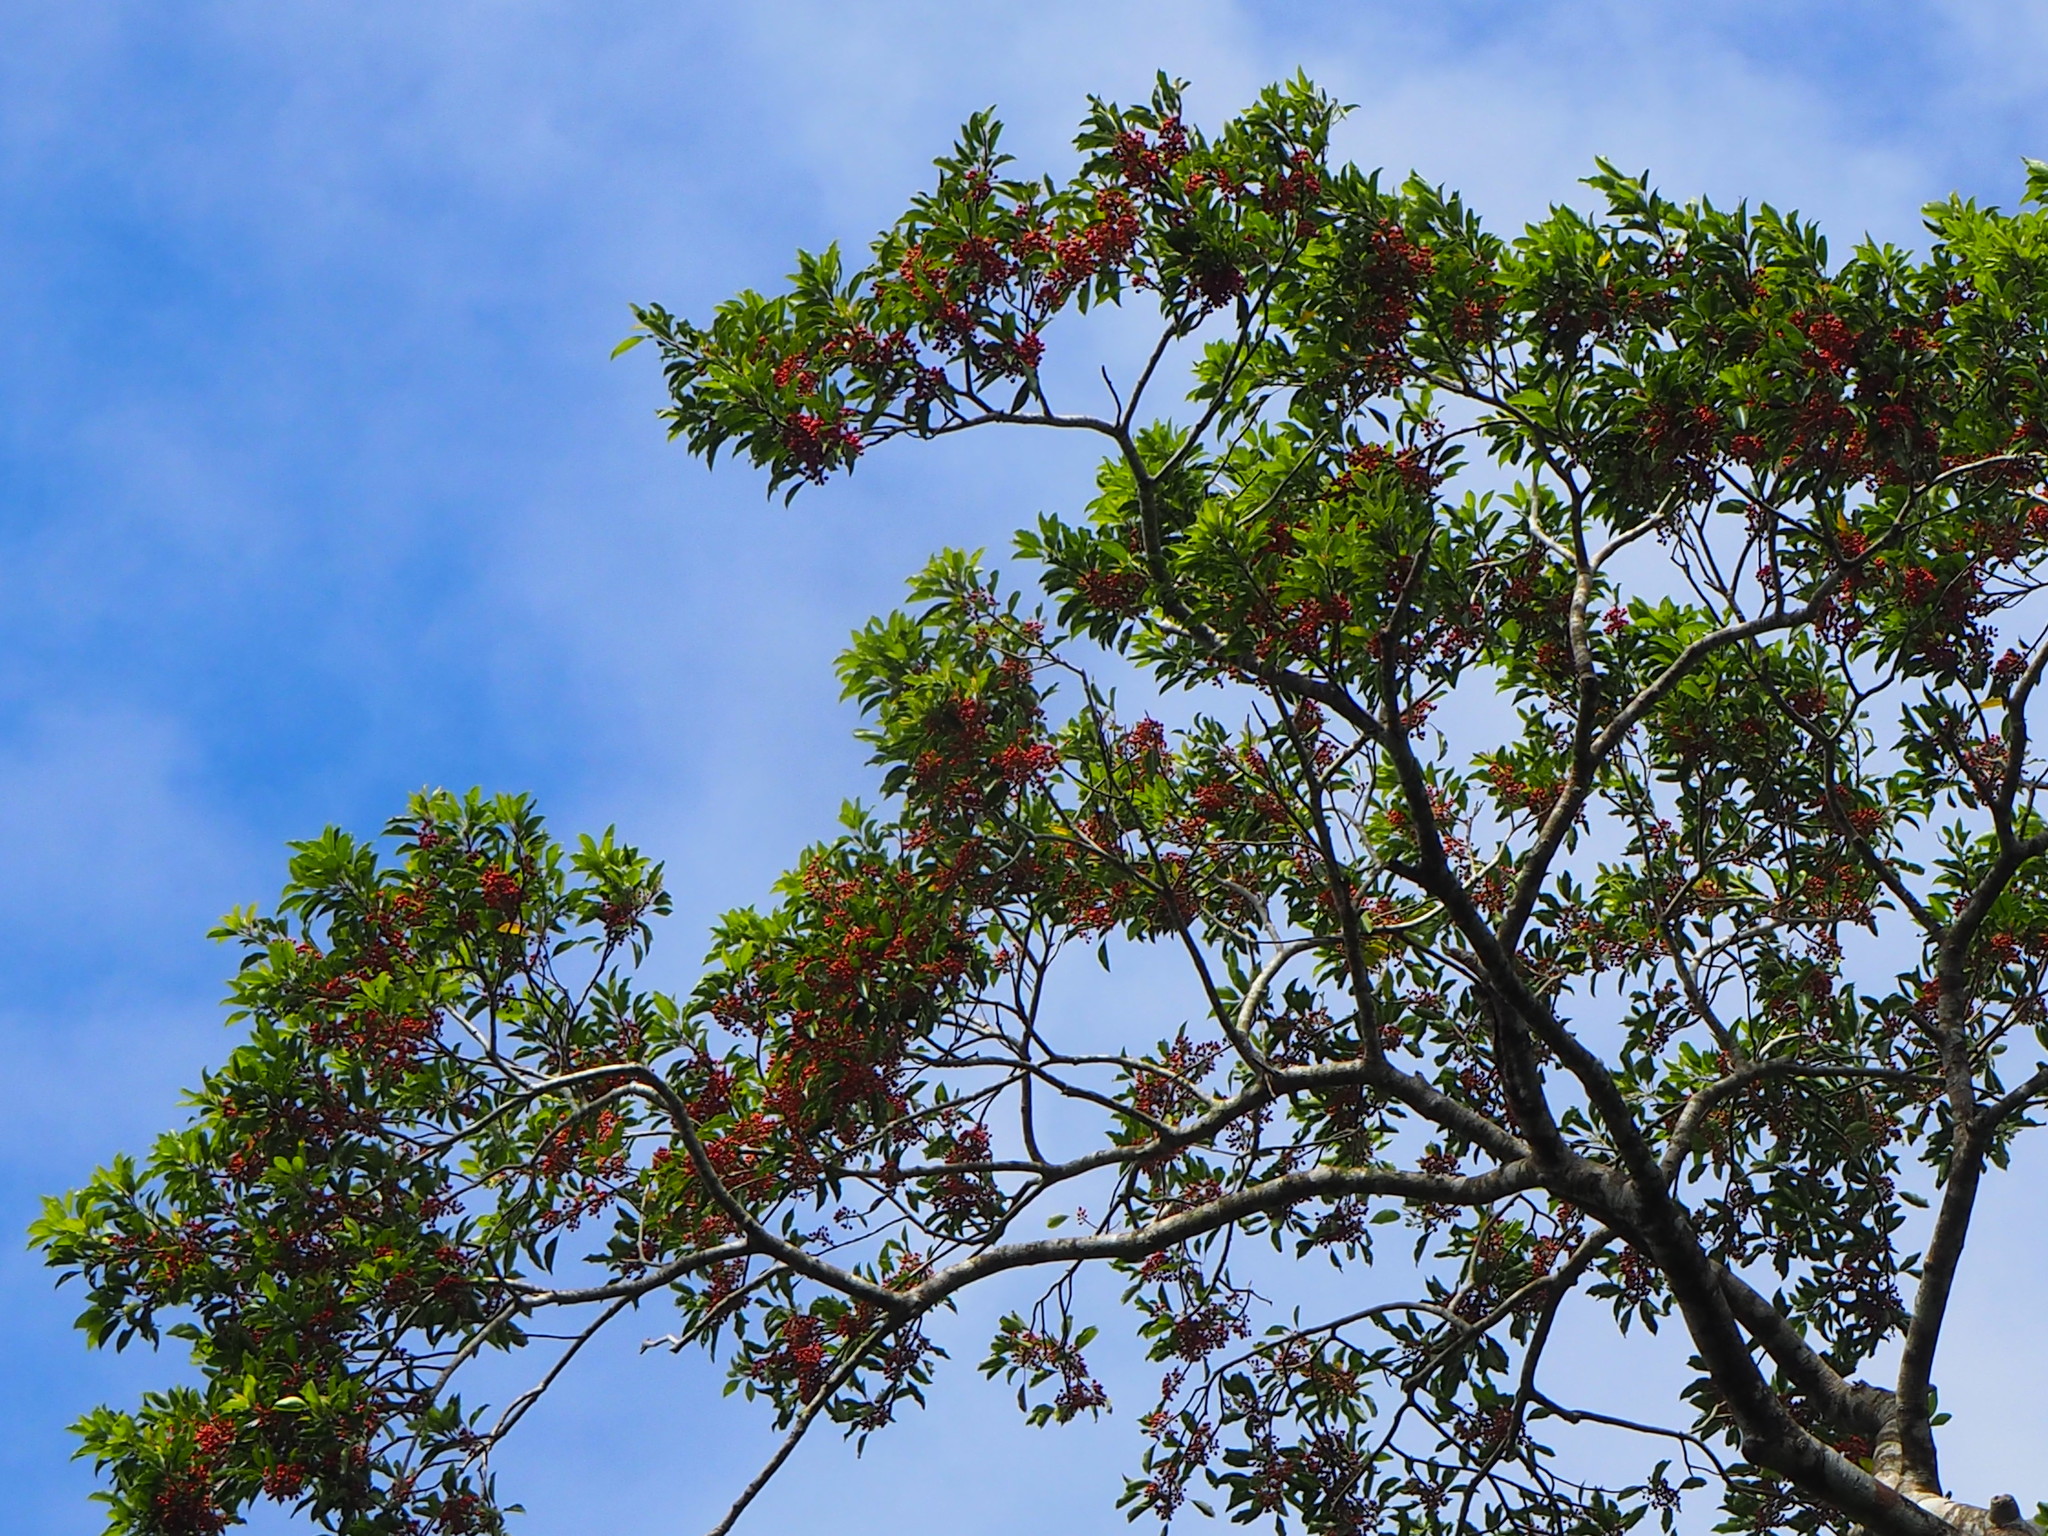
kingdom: Plantae
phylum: Tracheophyta
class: Magnoliopsida
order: Aquifoliales
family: Aquifoliaceae
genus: Ilex
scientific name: Ilex rotunda
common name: Kurogane holly
